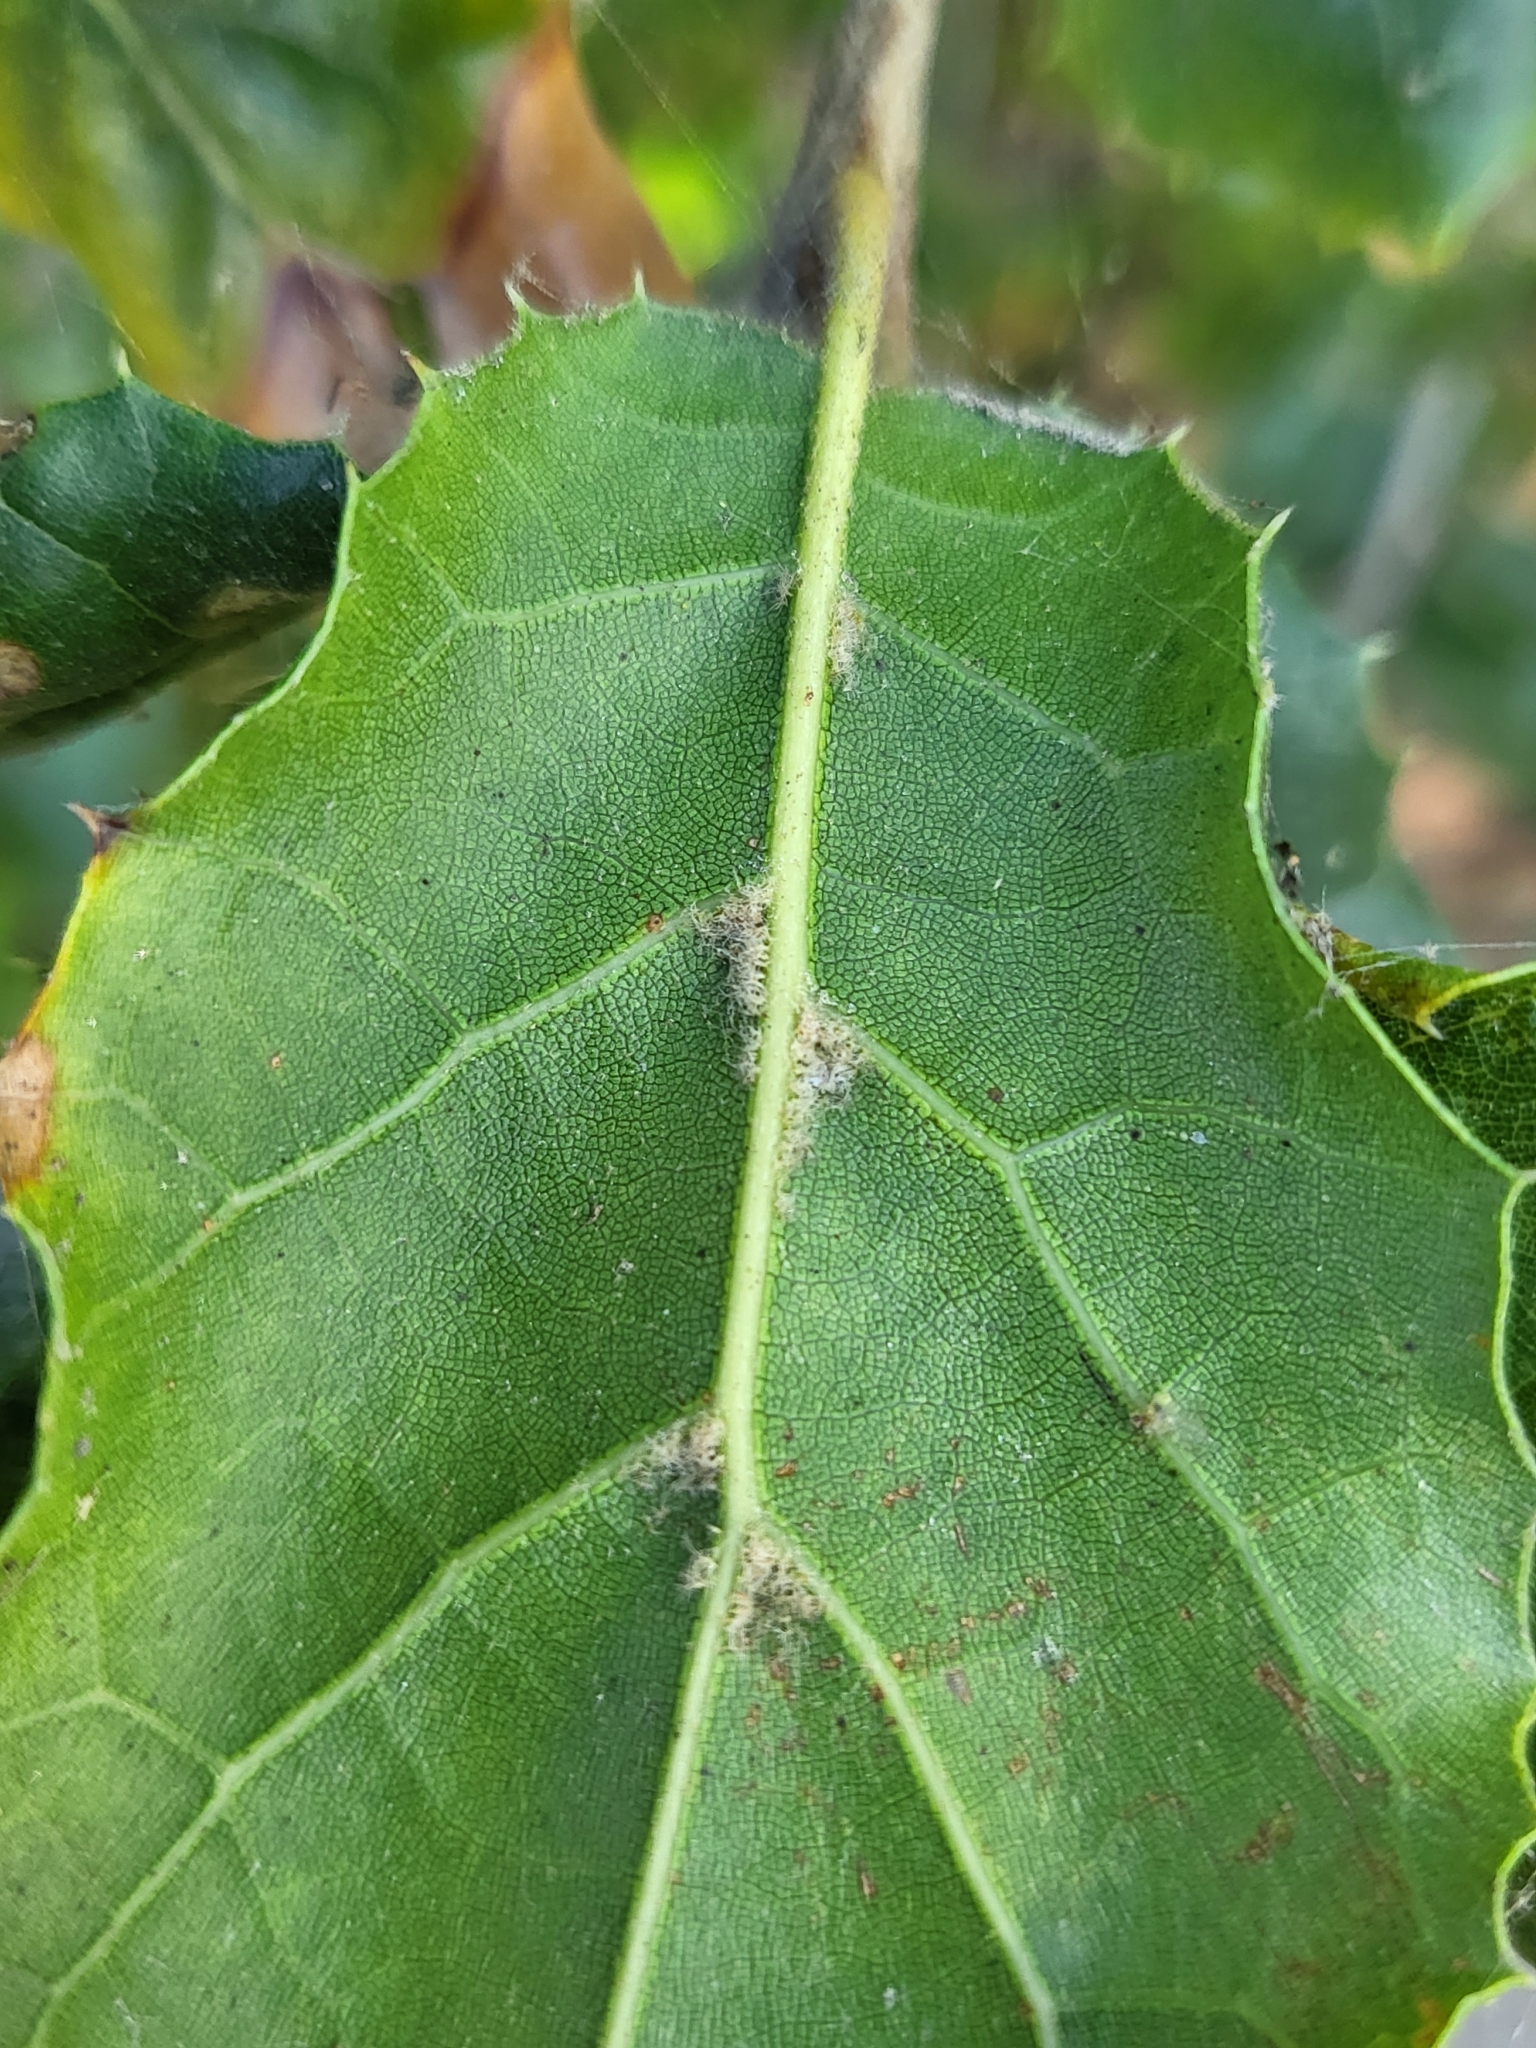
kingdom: Plantae
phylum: Tracheophyta
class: Magnoliopsida
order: Fagales
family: Fagaceae
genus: Quercus
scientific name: Quercus agrifolia
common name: California live oak
